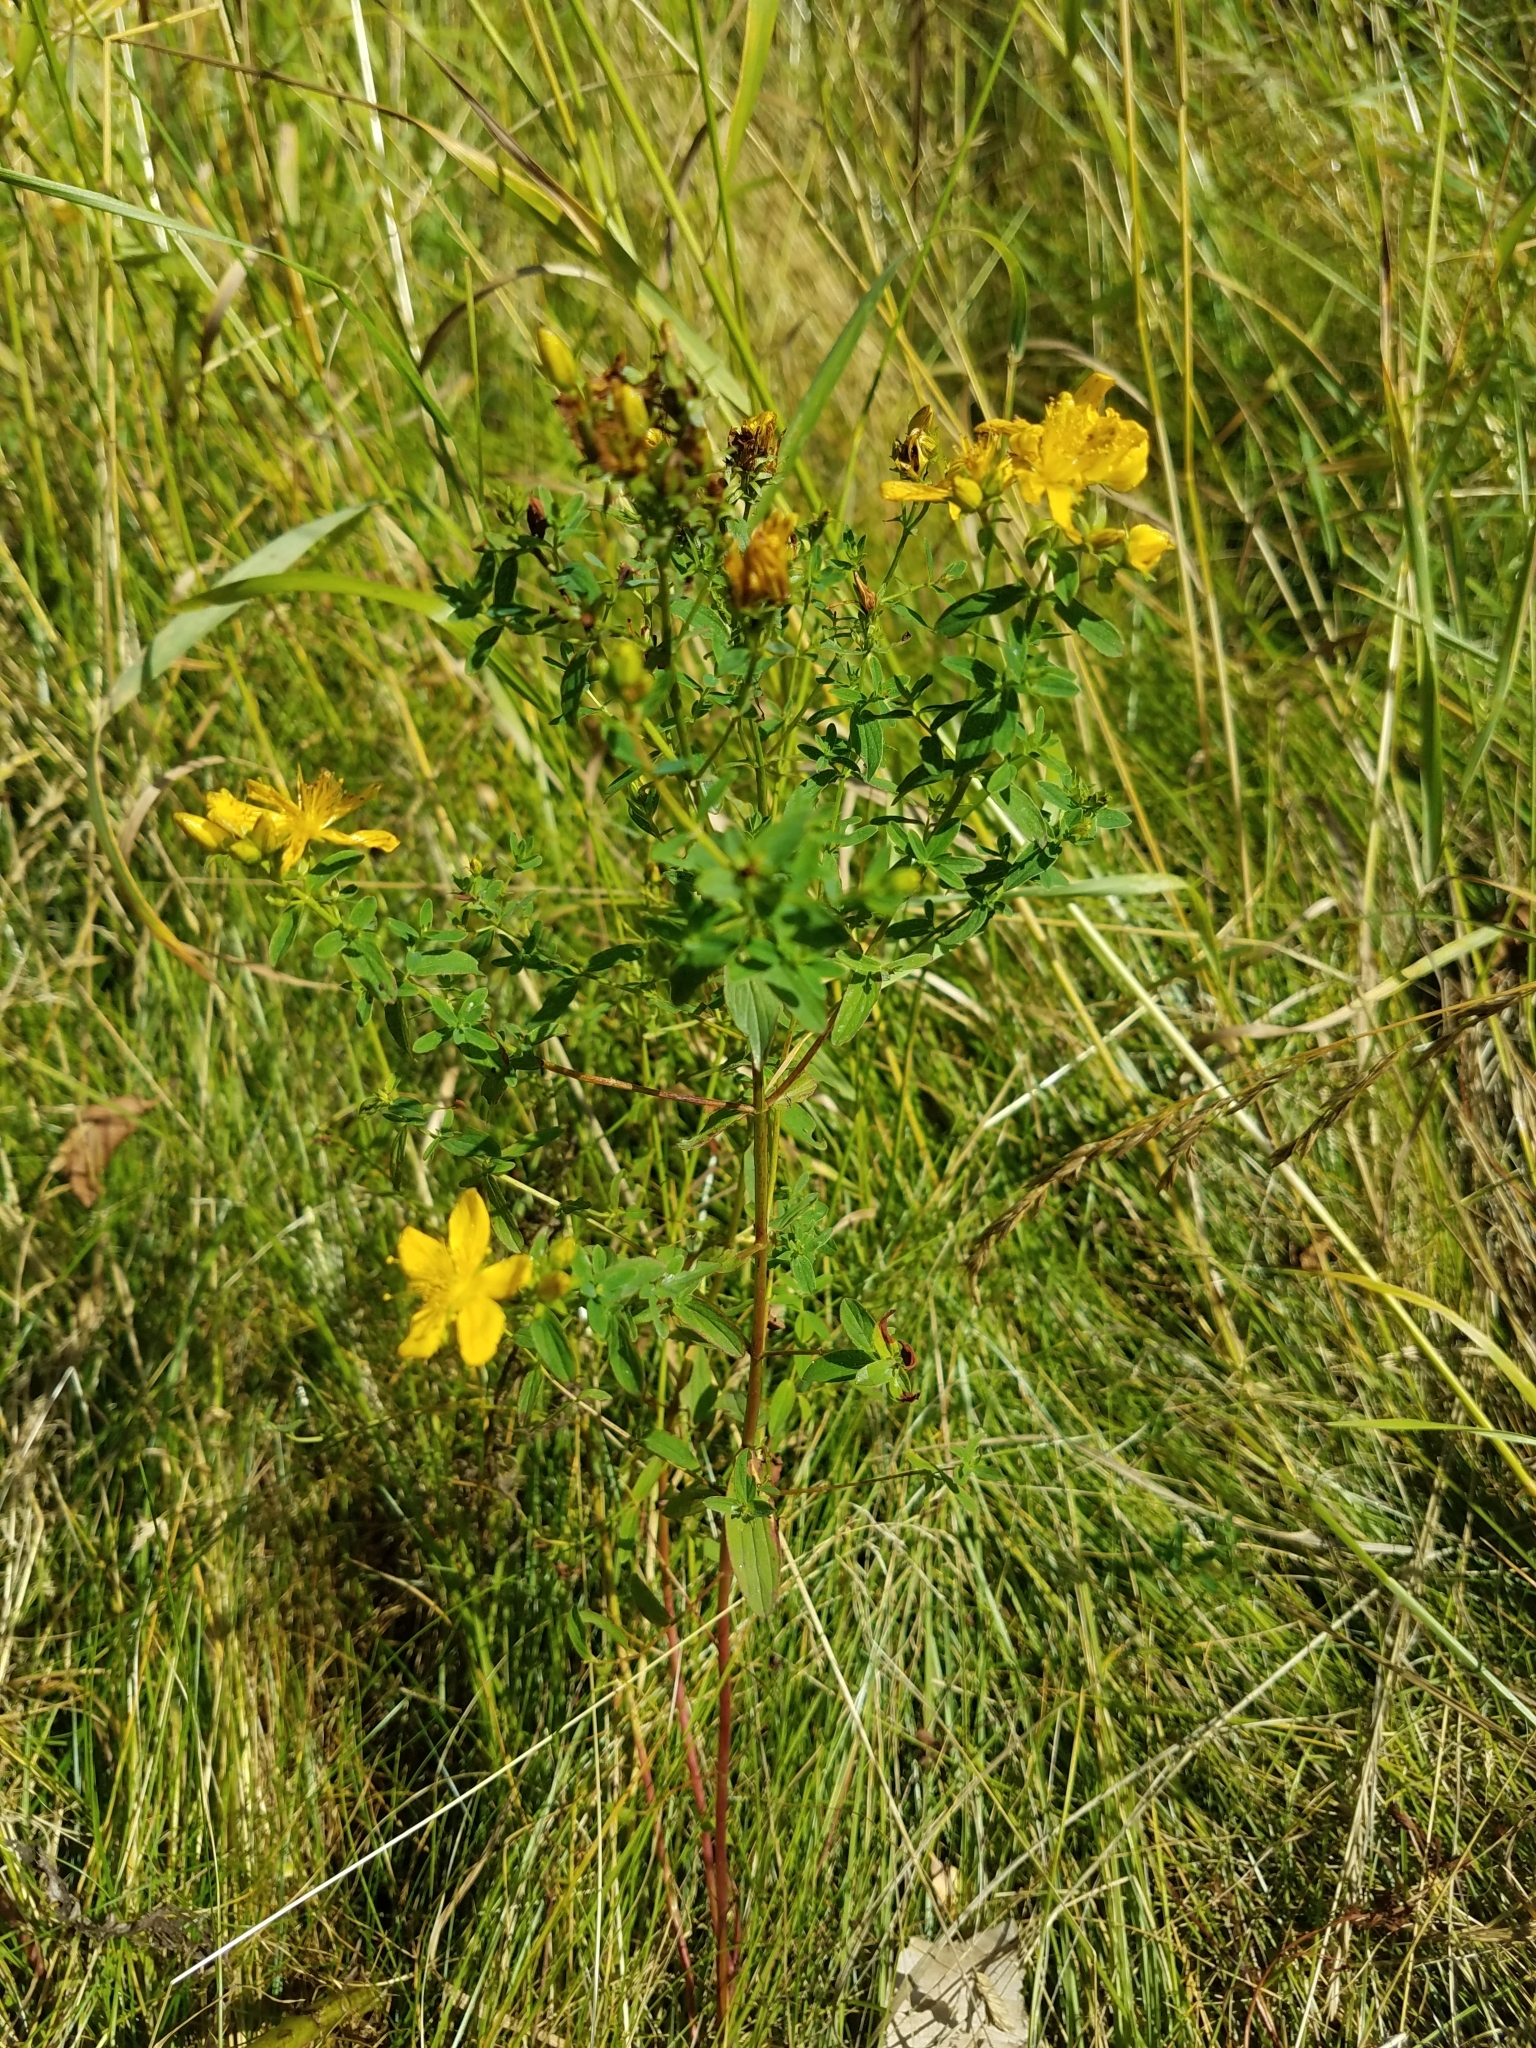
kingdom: Plantae
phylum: Tracheophyta
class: Magnoliopsida
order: Malpighiales
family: Hypericaceae
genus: Hypericum
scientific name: Hypericum perforatum
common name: Common st. johnswort
